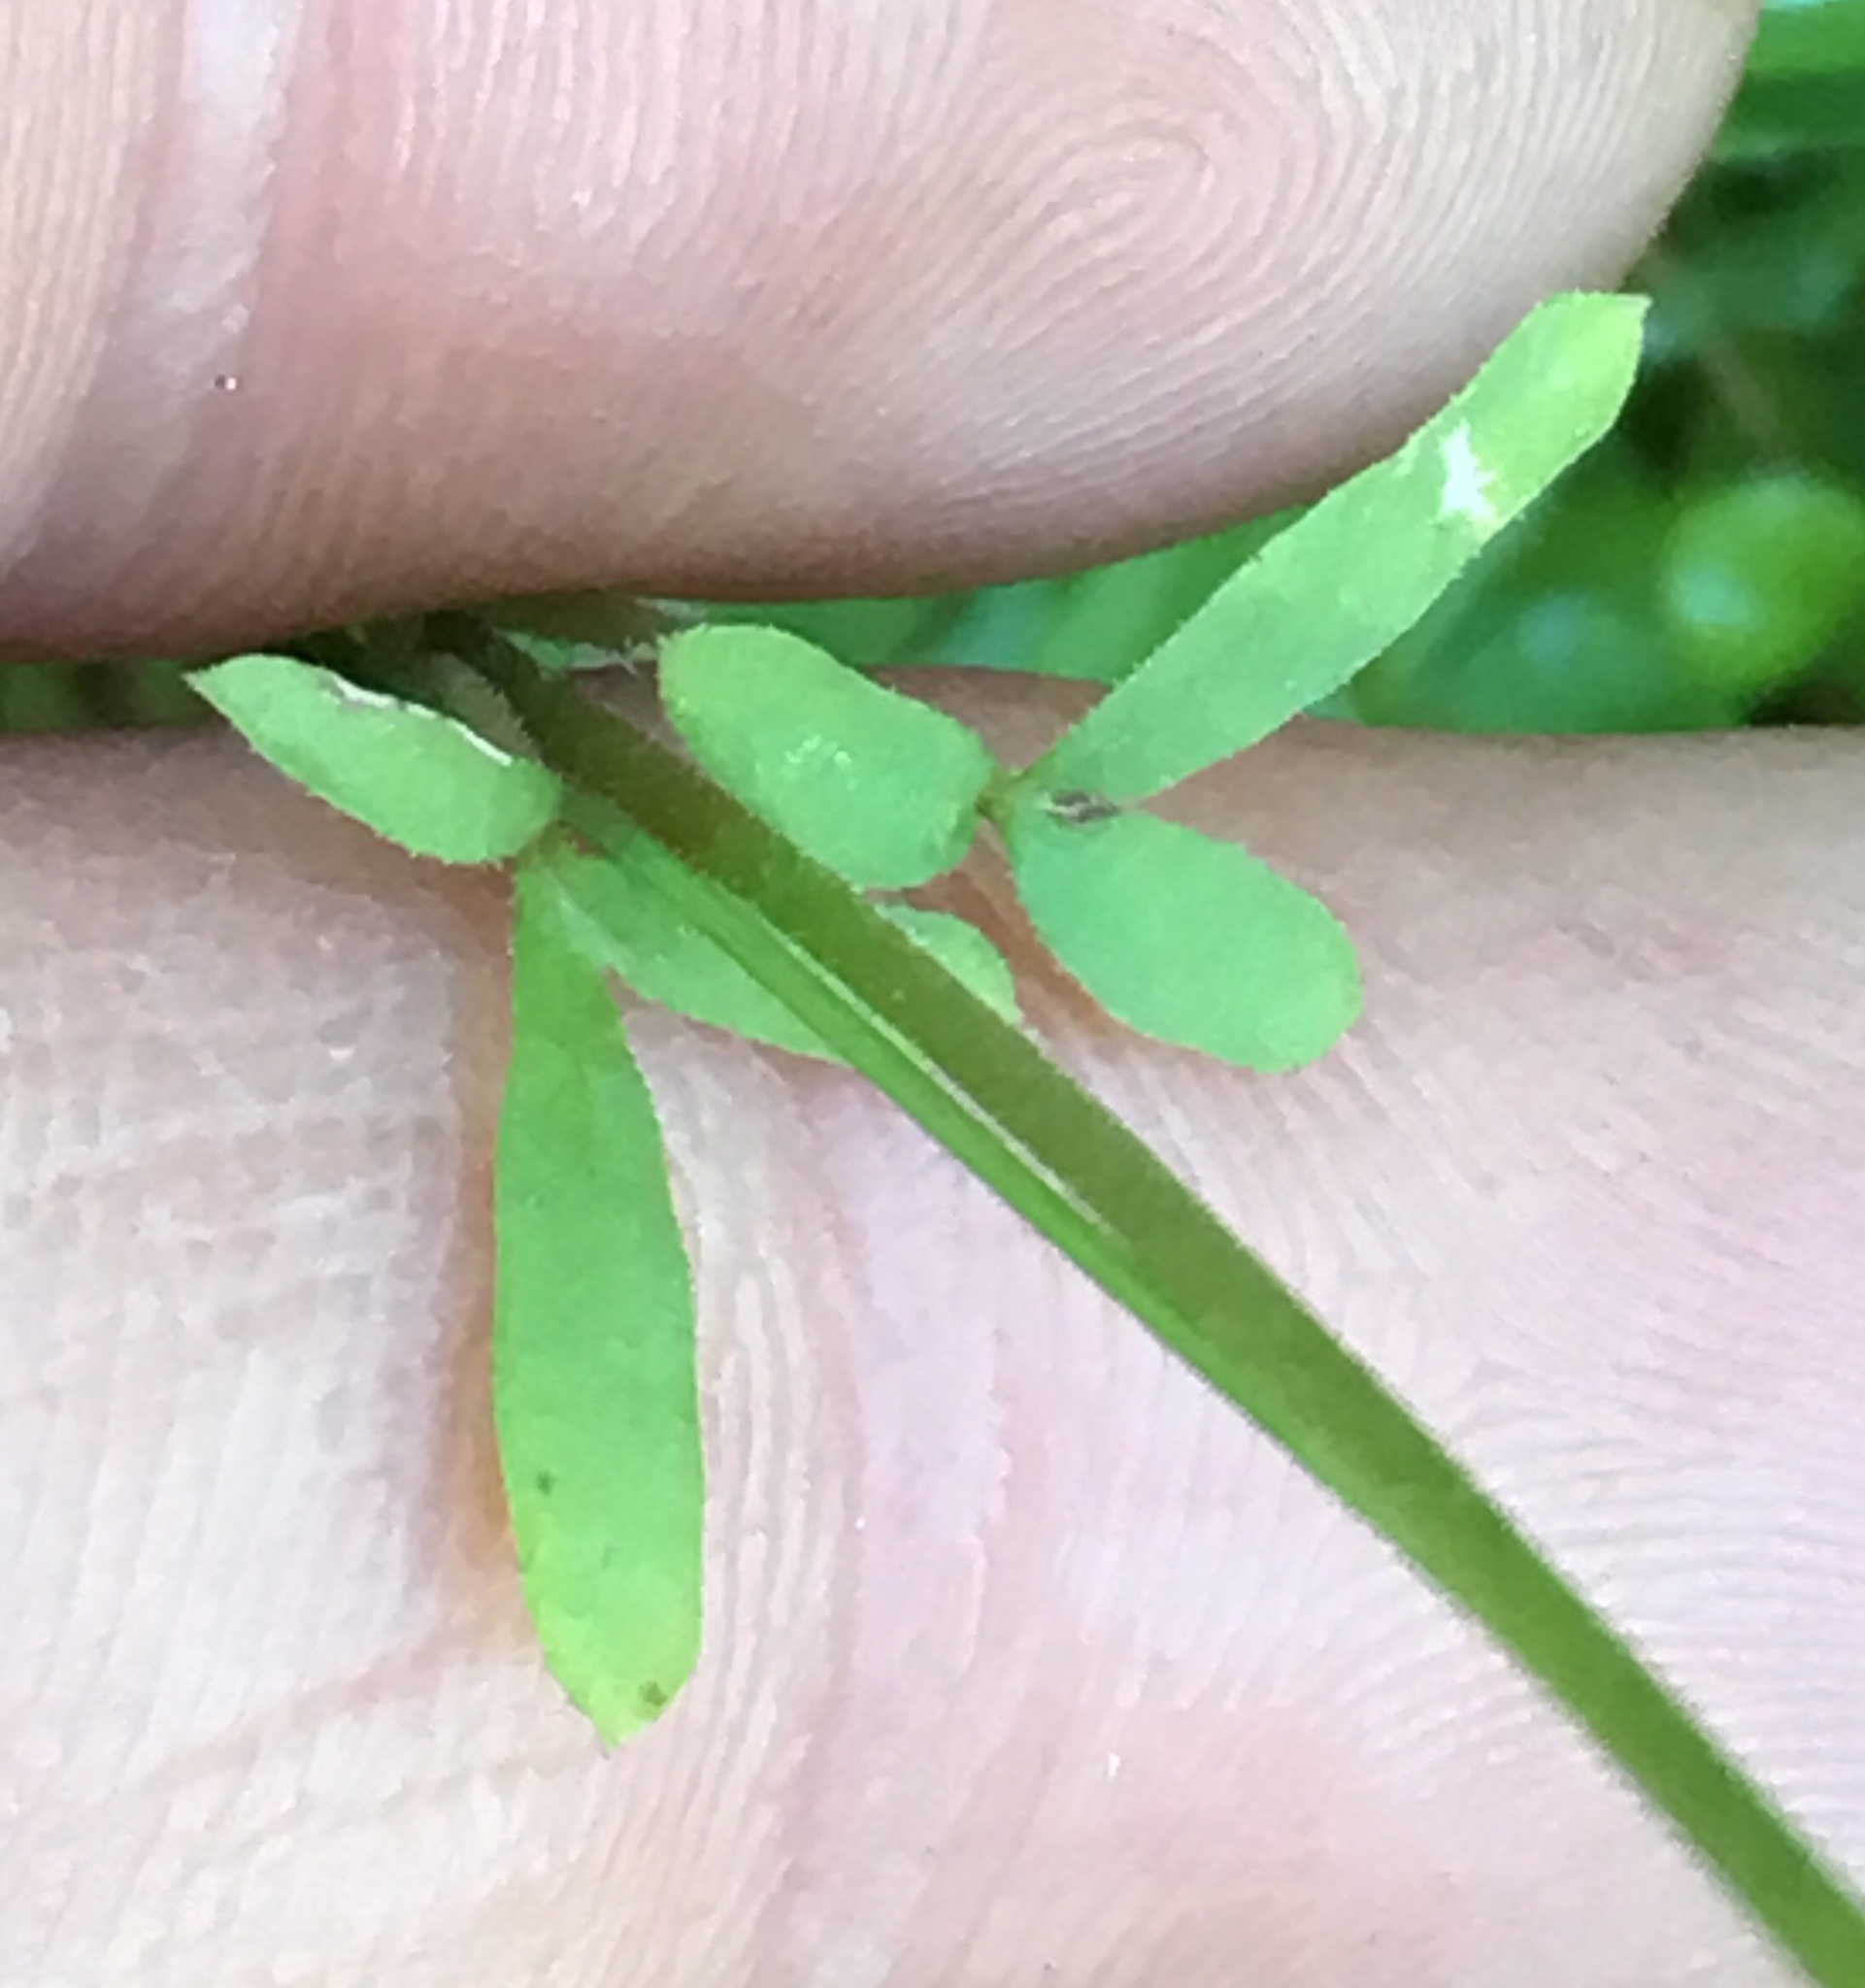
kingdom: Plantae
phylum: Tracheophyta
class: Magnoliopsida
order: Saxifragales
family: Saxifragaceae
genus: Lithophragma
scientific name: Lithophragma cymbalaria
